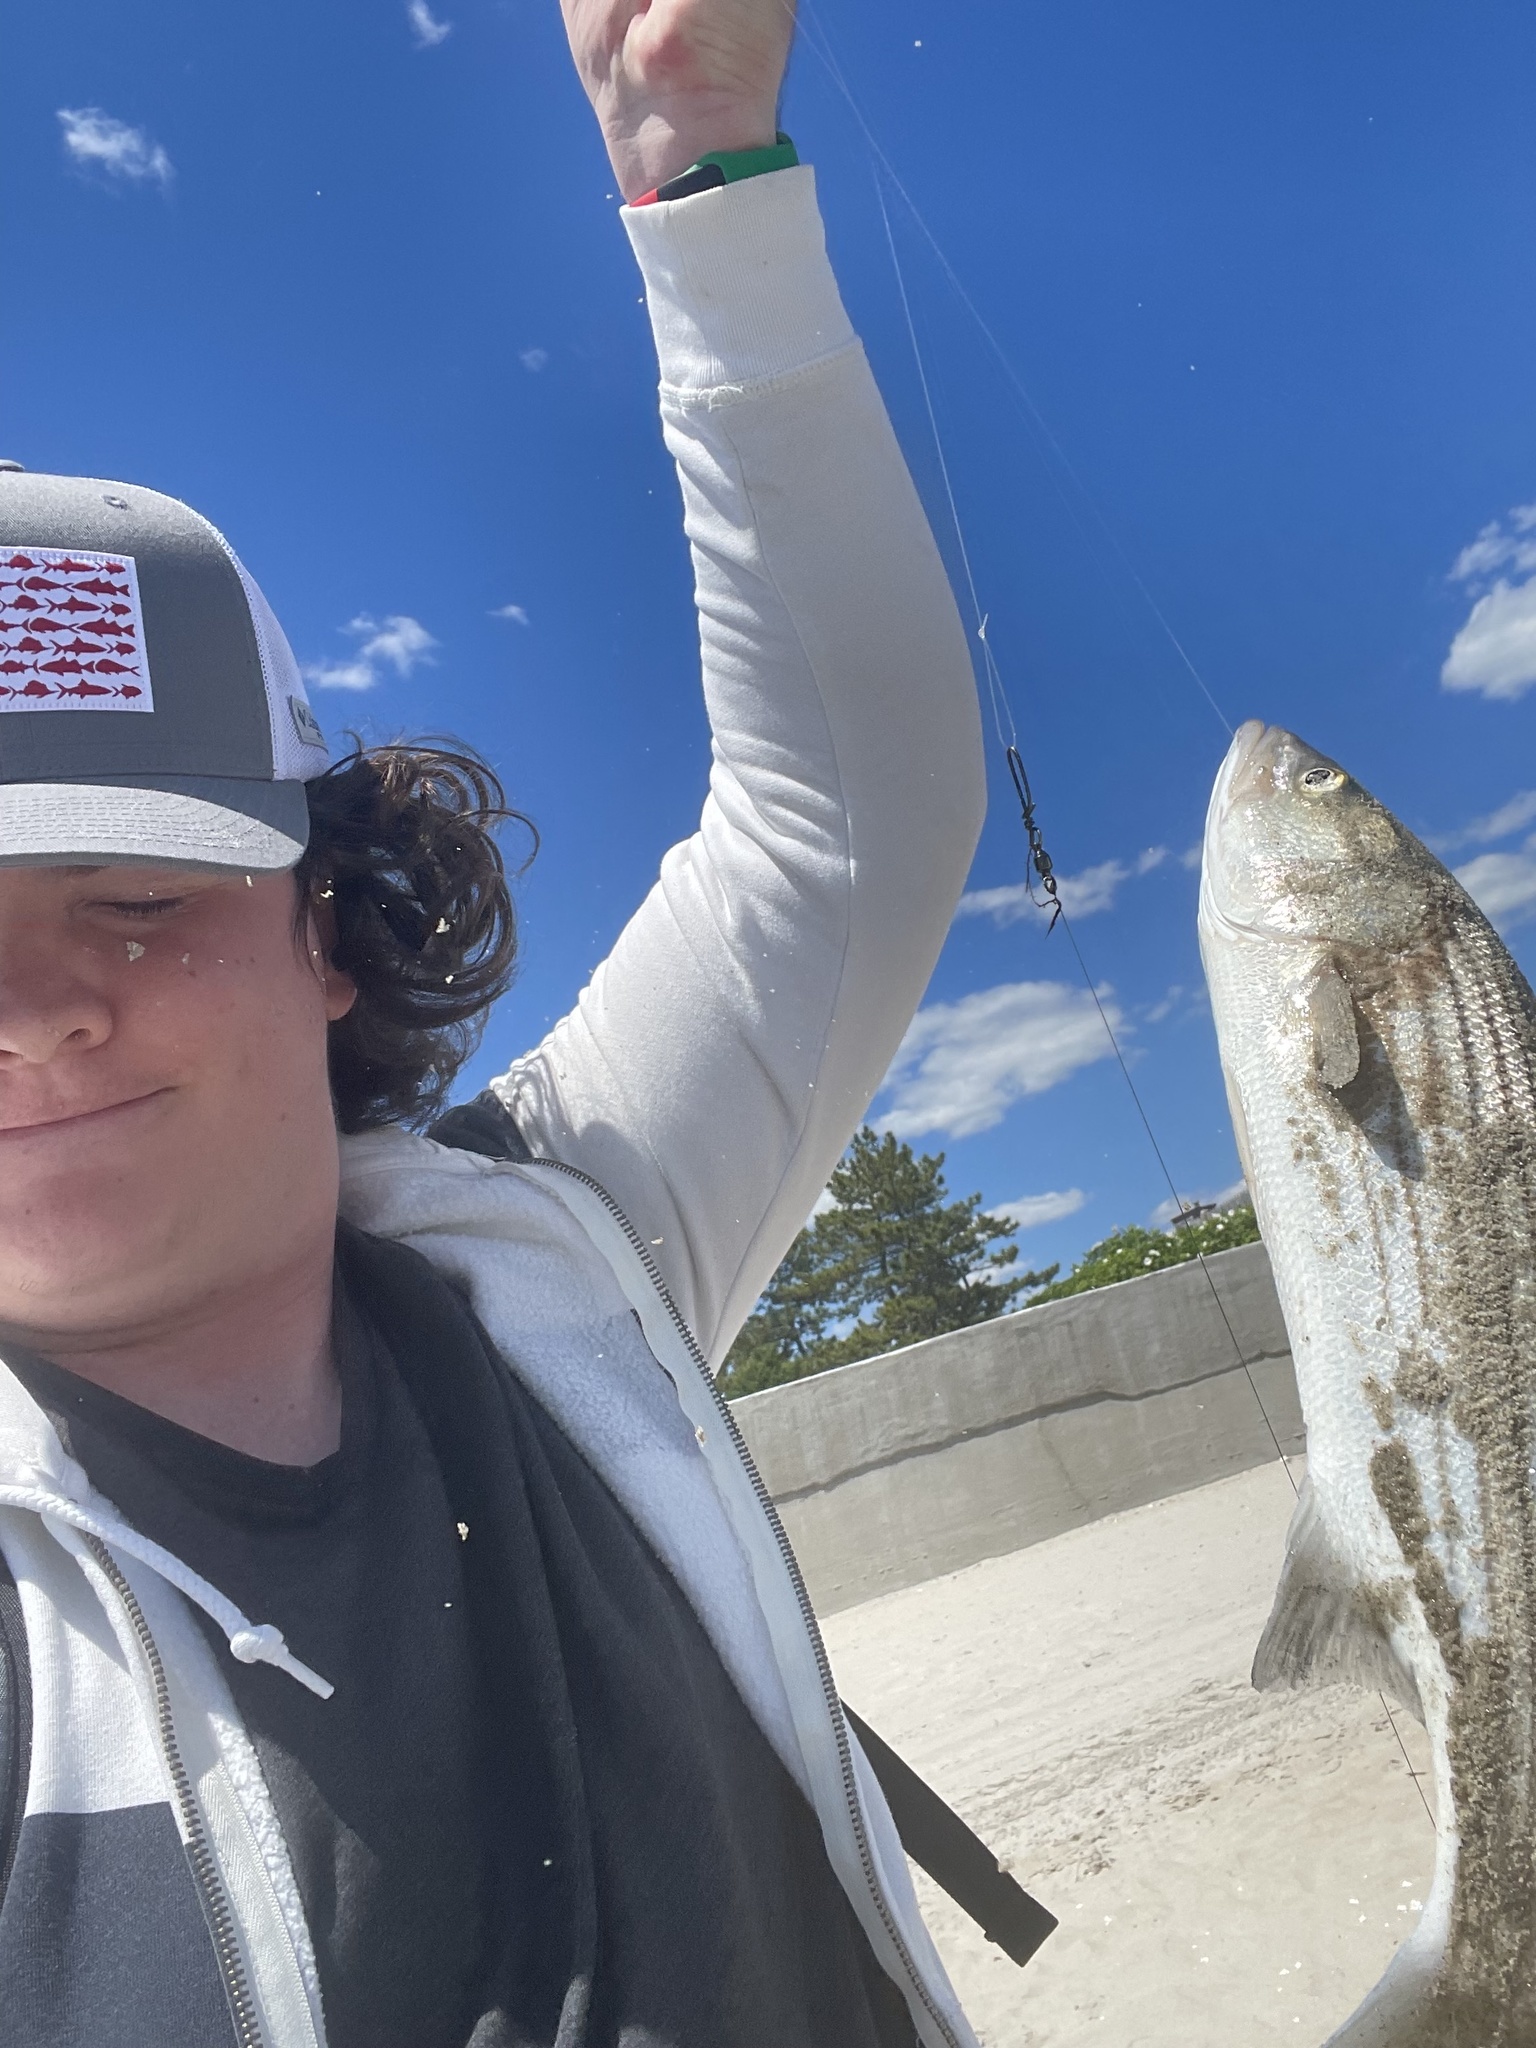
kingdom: Animalia
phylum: Chordata
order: Perciformes
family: Moronidae
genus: Morone
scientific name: Morone saxatilis
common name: Striped bass
